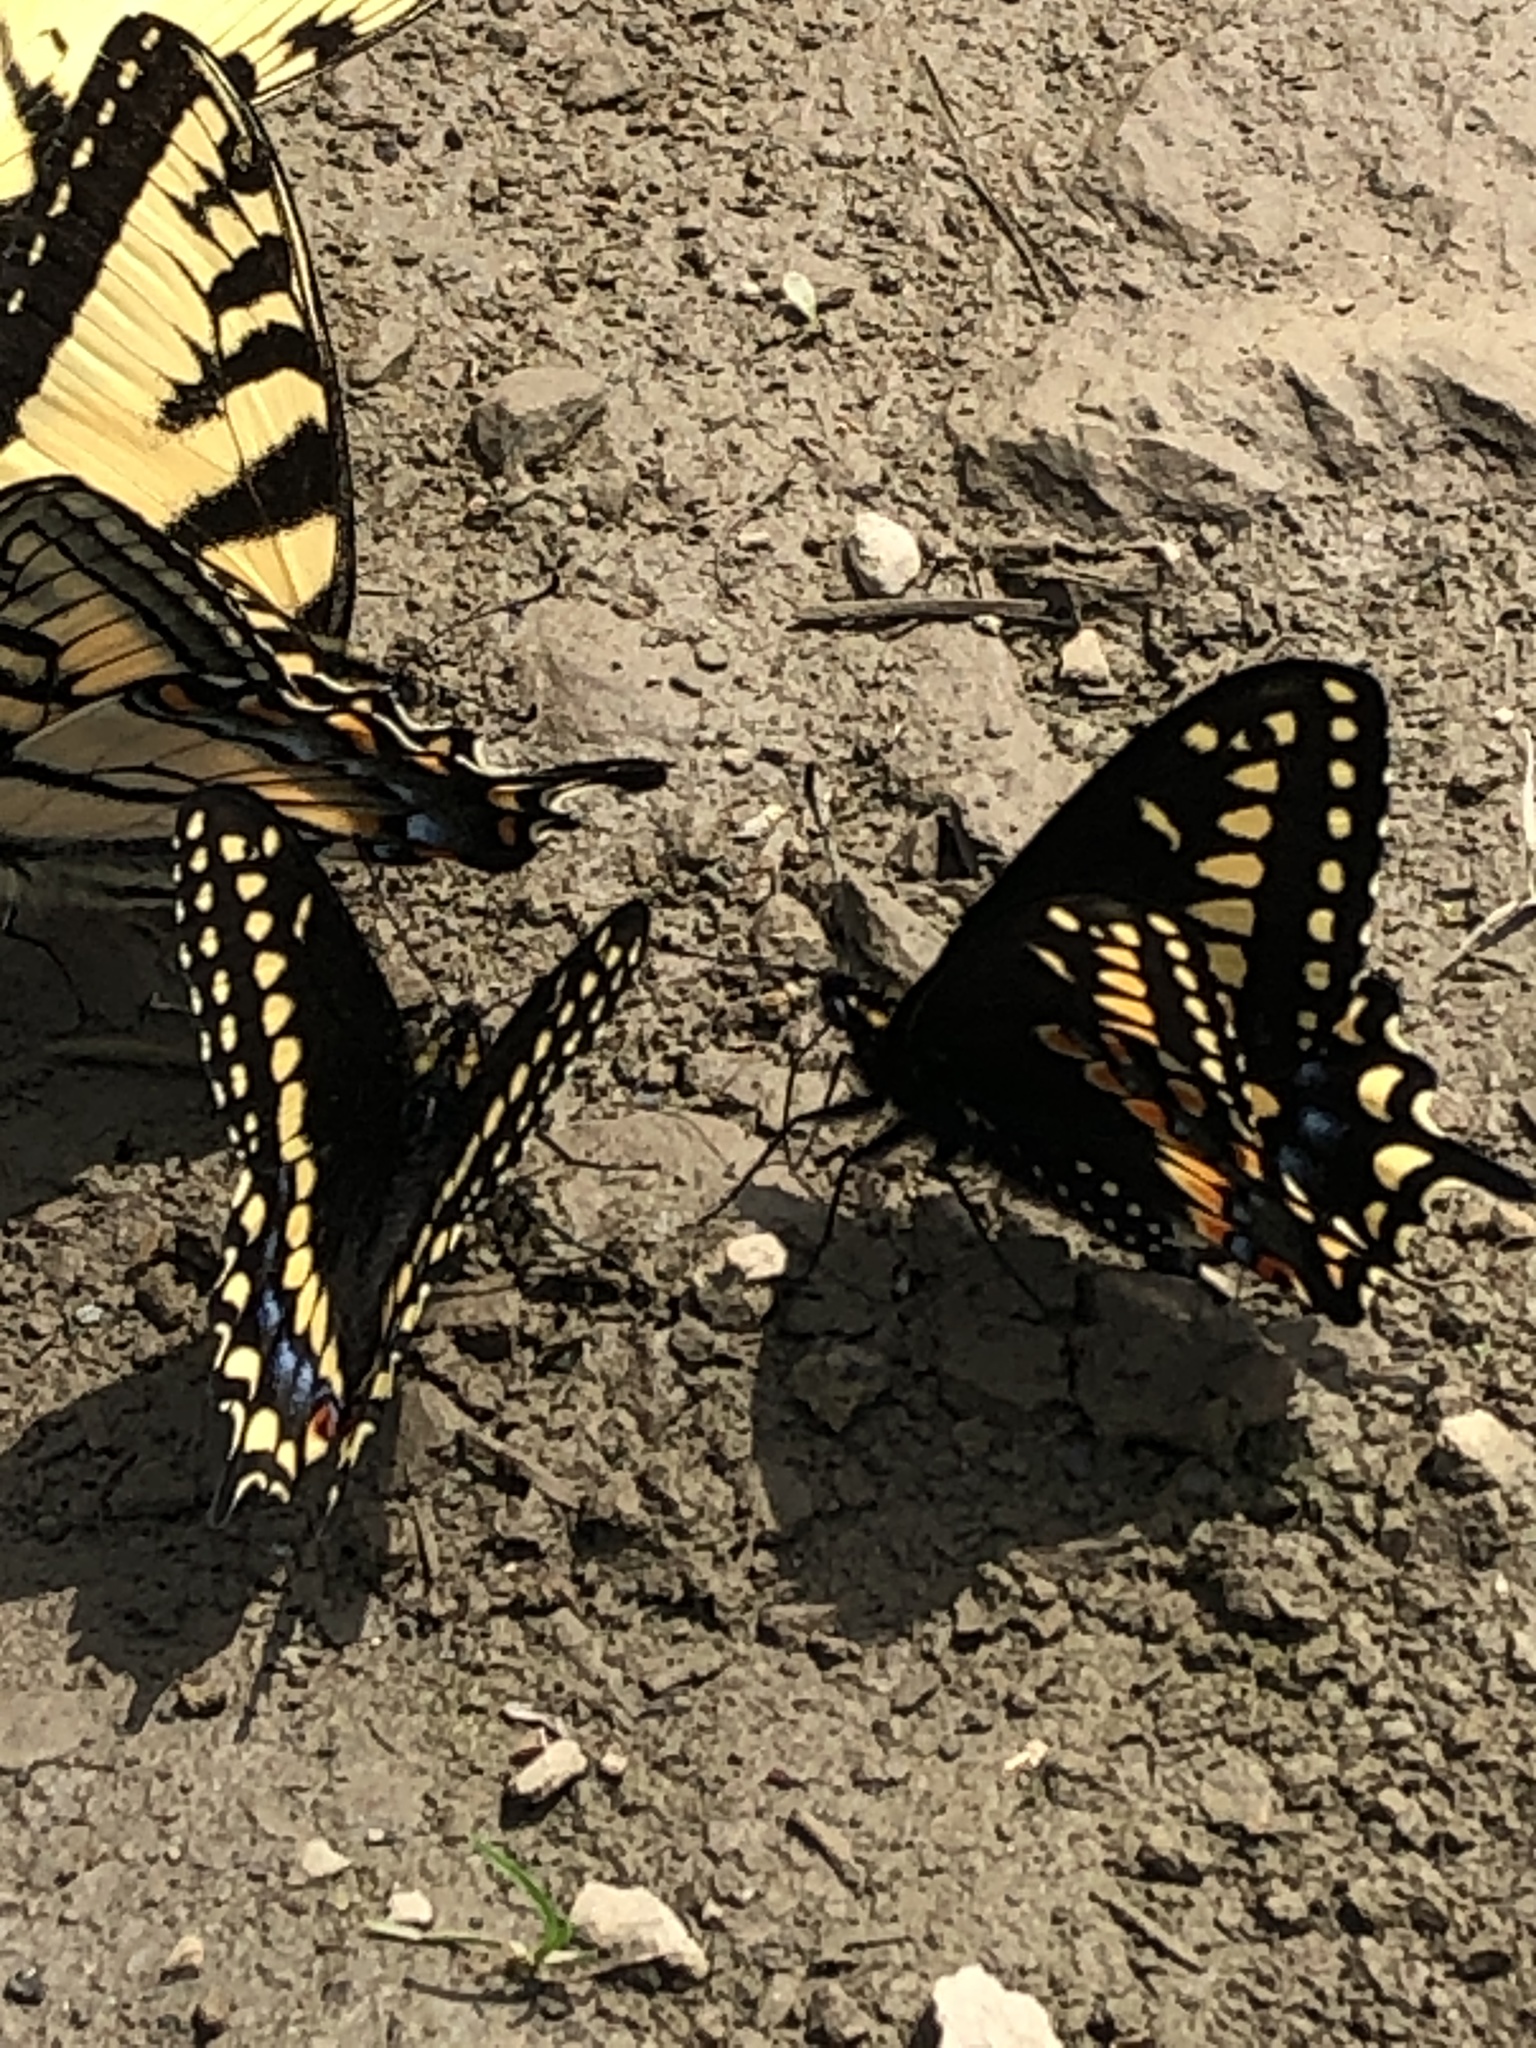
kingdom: Animalia
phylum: Arthropoda
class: Insecta
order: Lepidoptera
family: Papilionidae
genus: Papilio
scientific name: Papilio brevicauda
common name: Short tailed swallowtail
